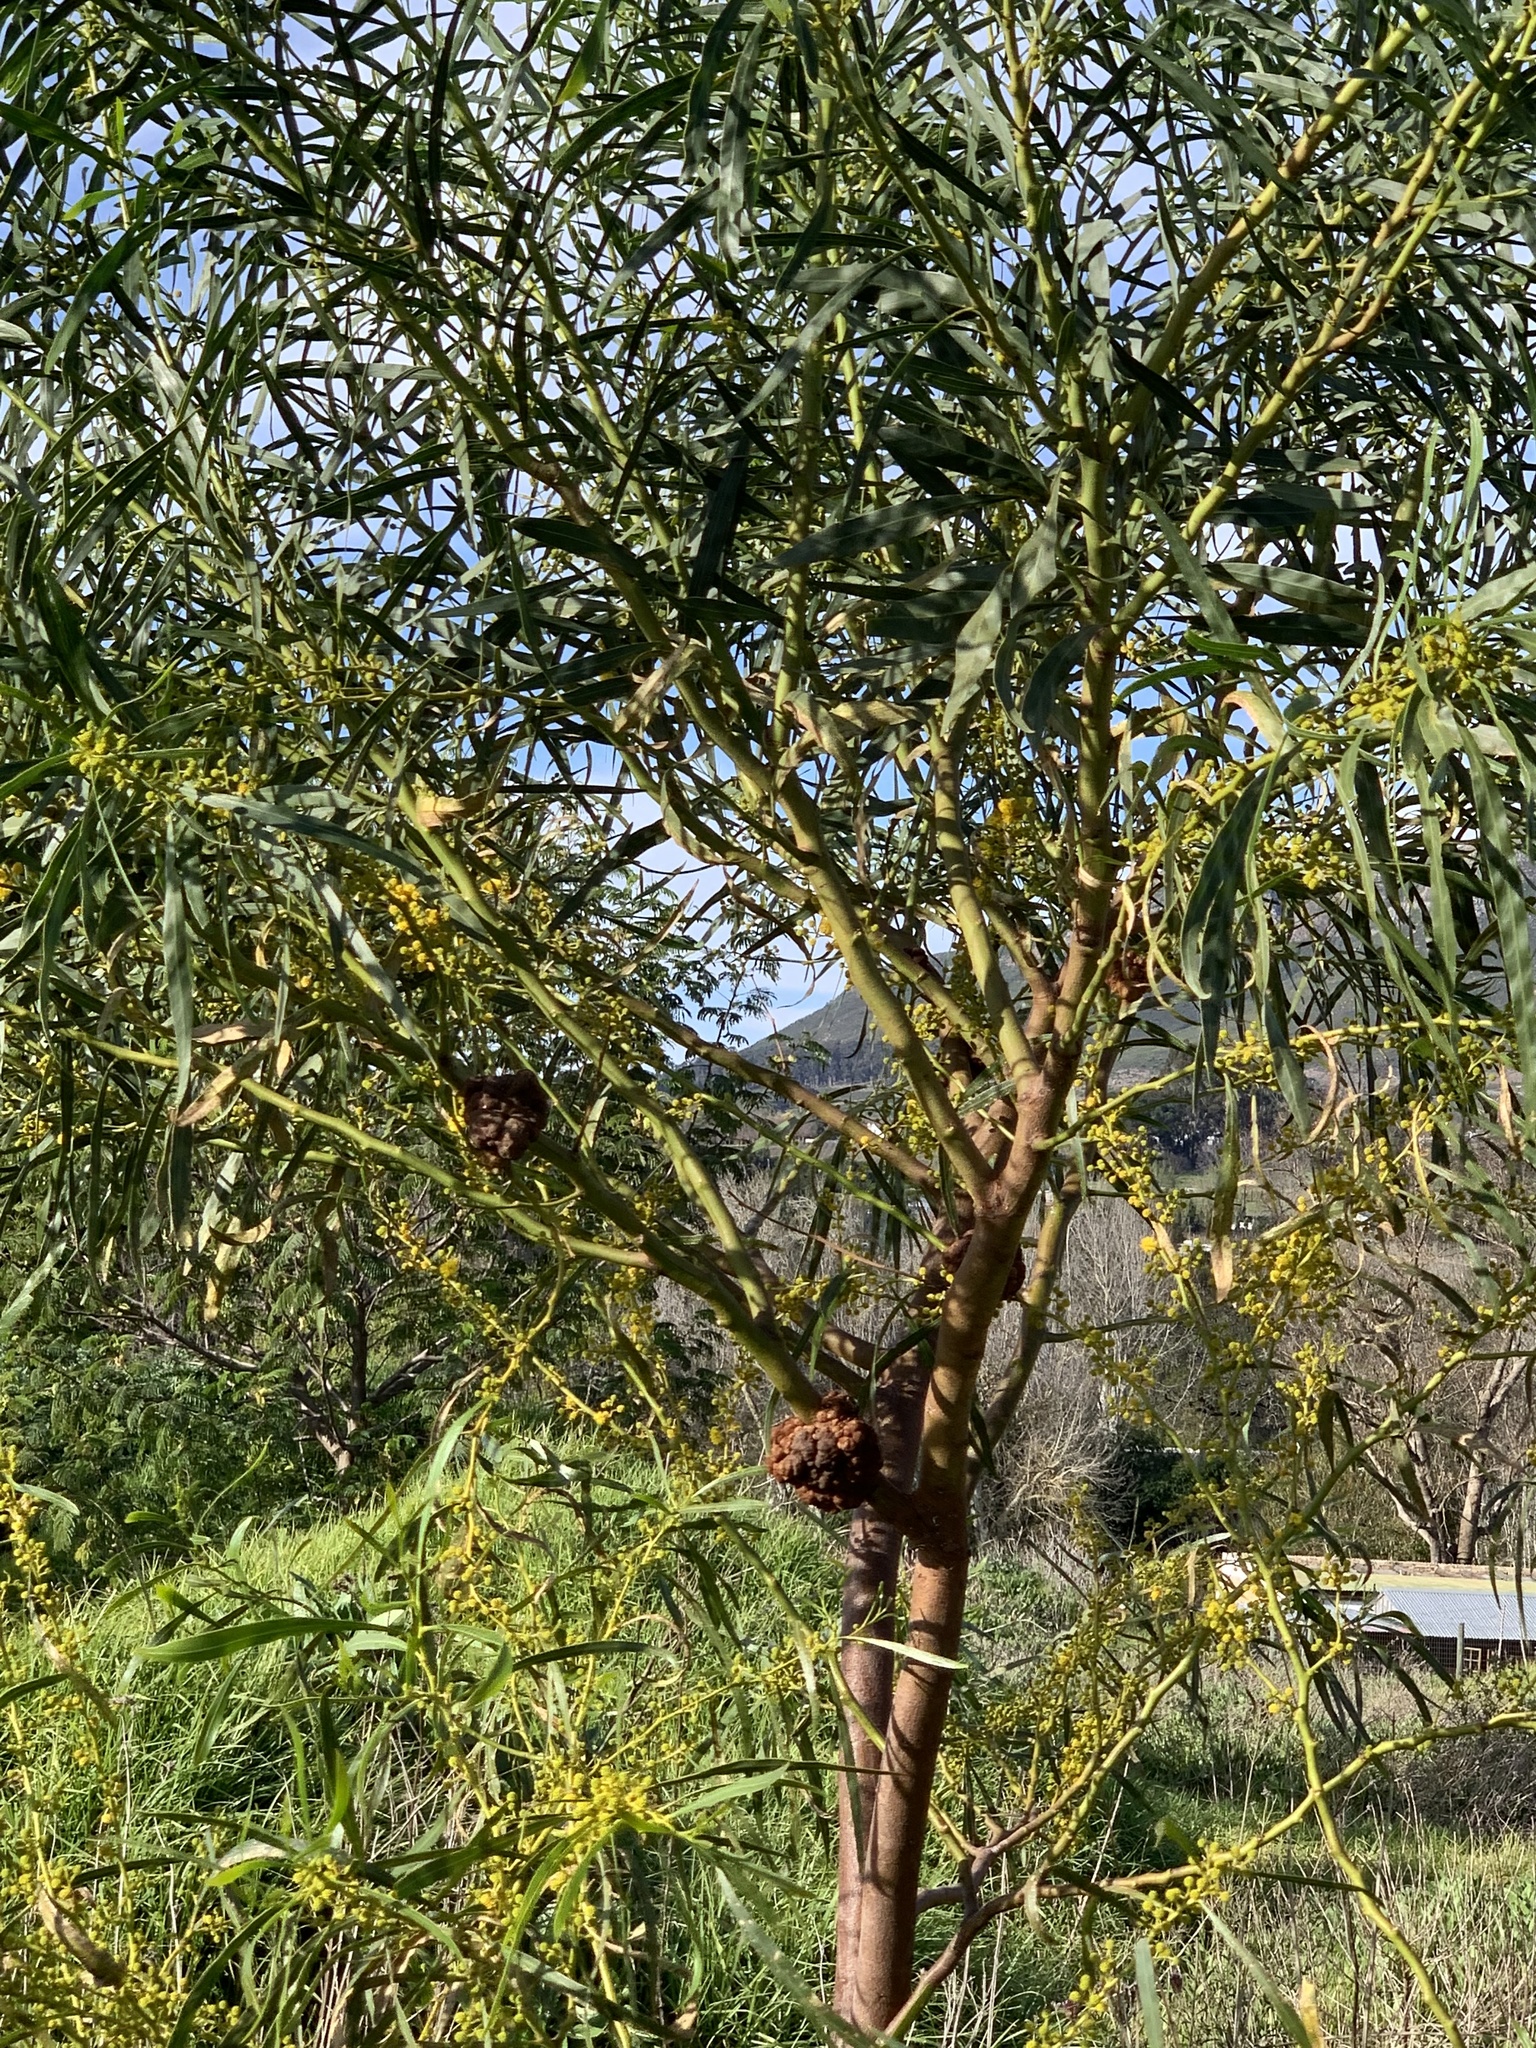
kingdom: Plantae
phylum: Tracheophyta
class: Magnoliopsida
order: Fabales
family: Fabaceae
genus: Acacia
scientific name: Acacia saligna
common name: Orange wattle
